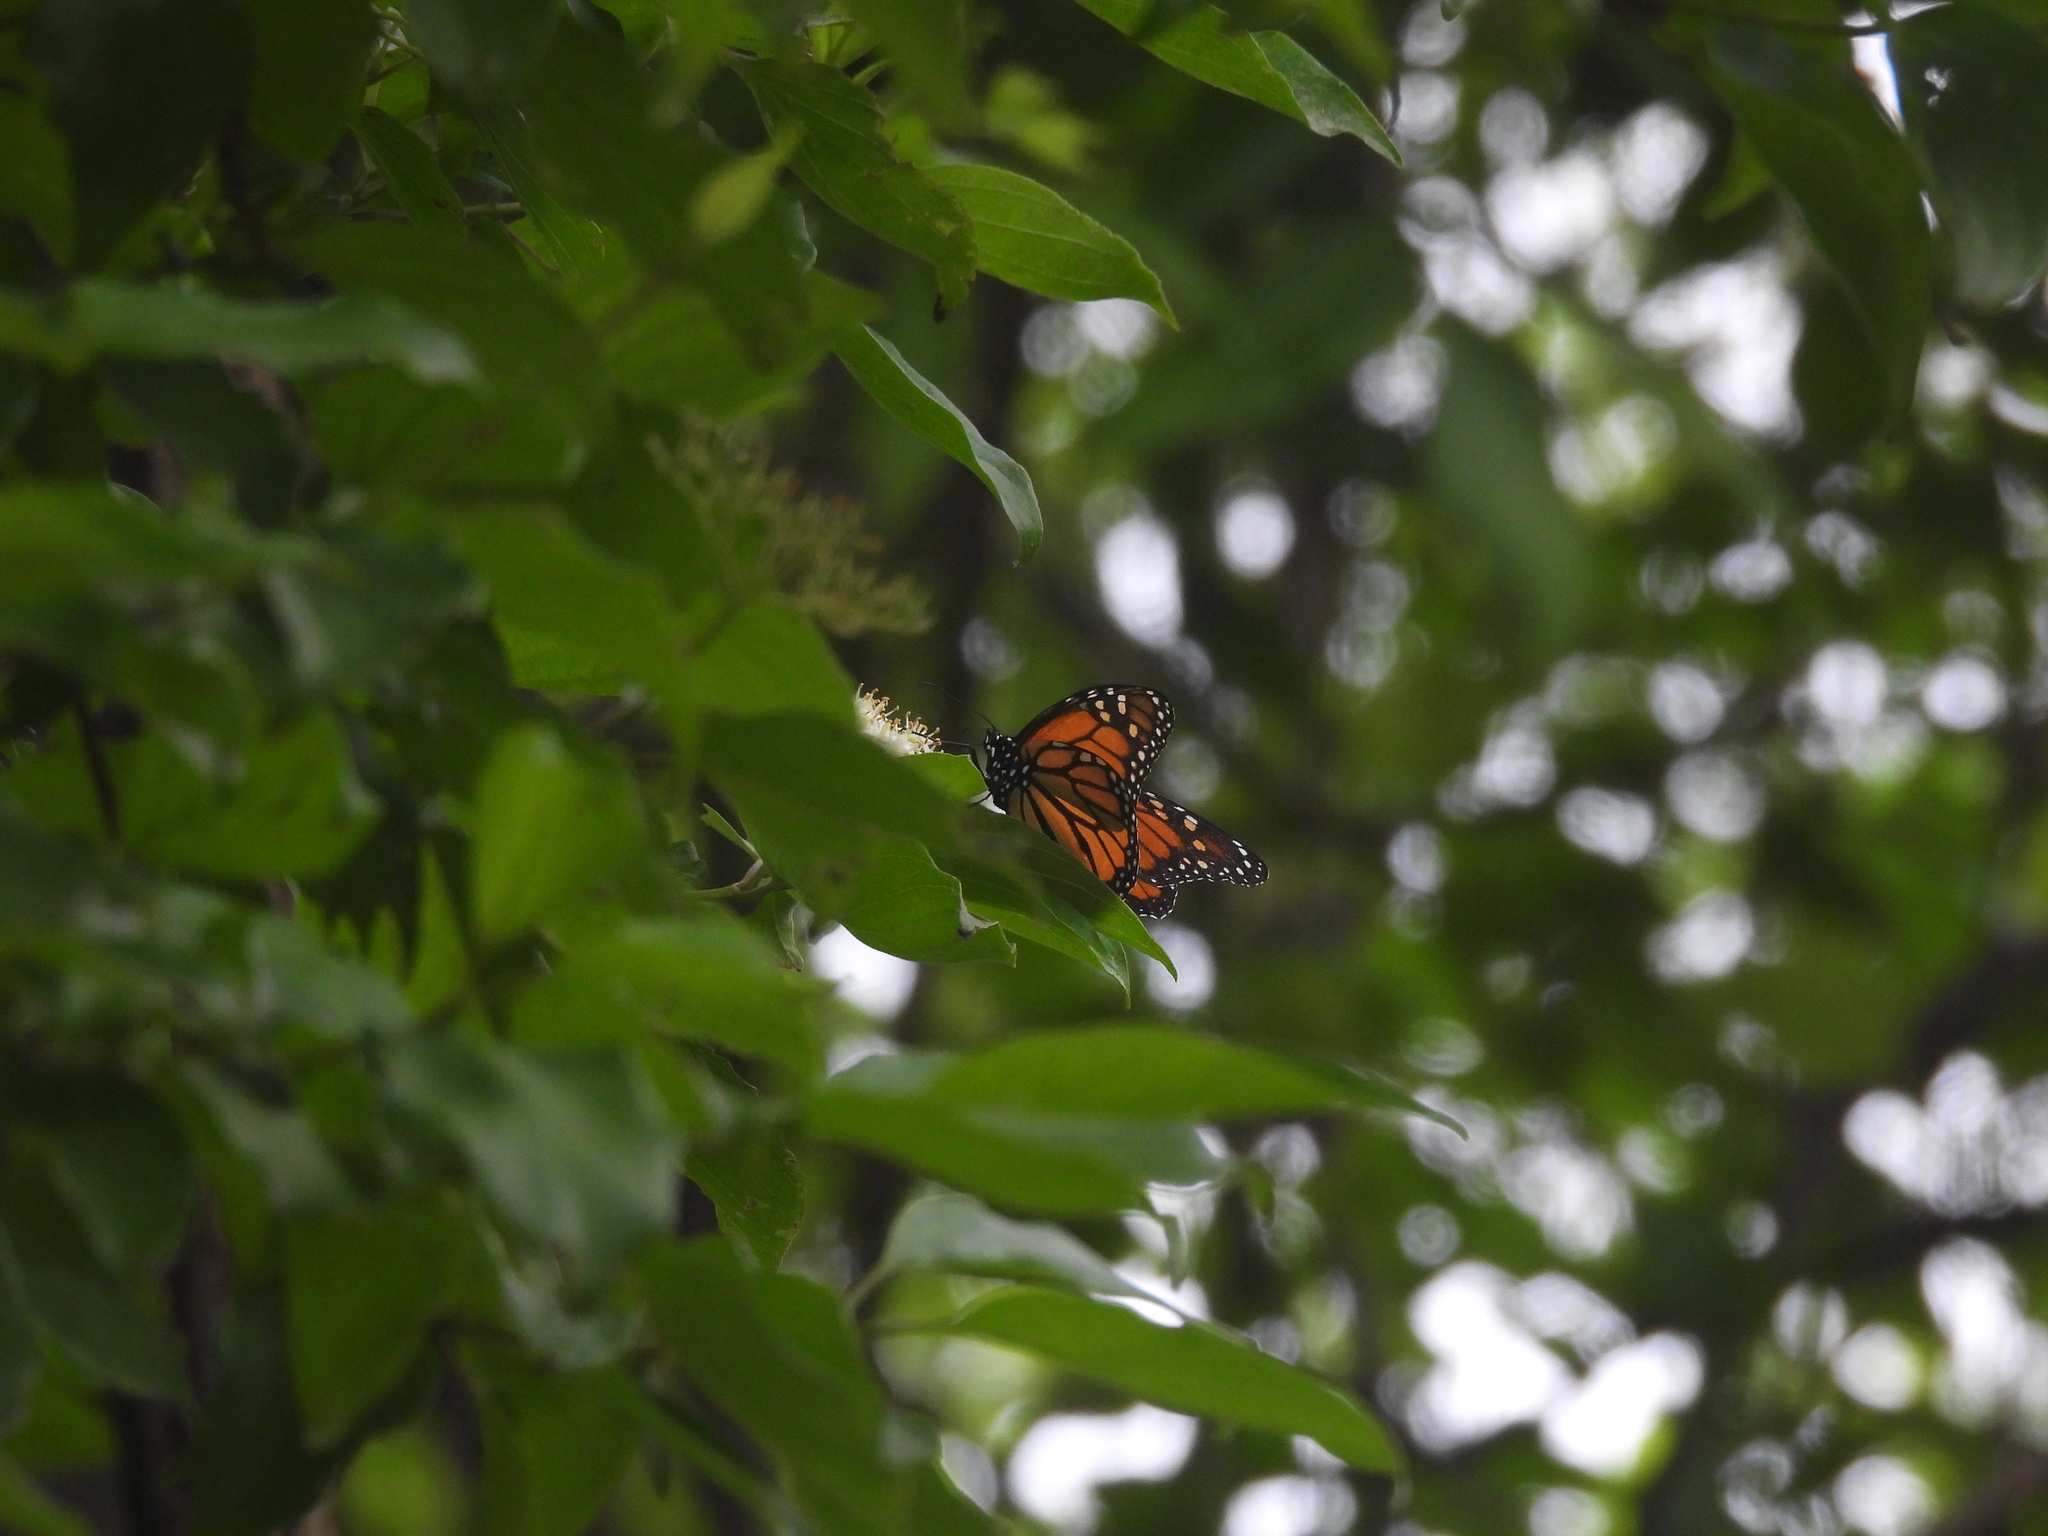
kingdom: Animalia
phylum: Arthropoda
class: Insecta
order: Lepidoptera
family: Nymphalidae
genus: Danaus
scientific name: Danaus plexippus
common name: Monarch
